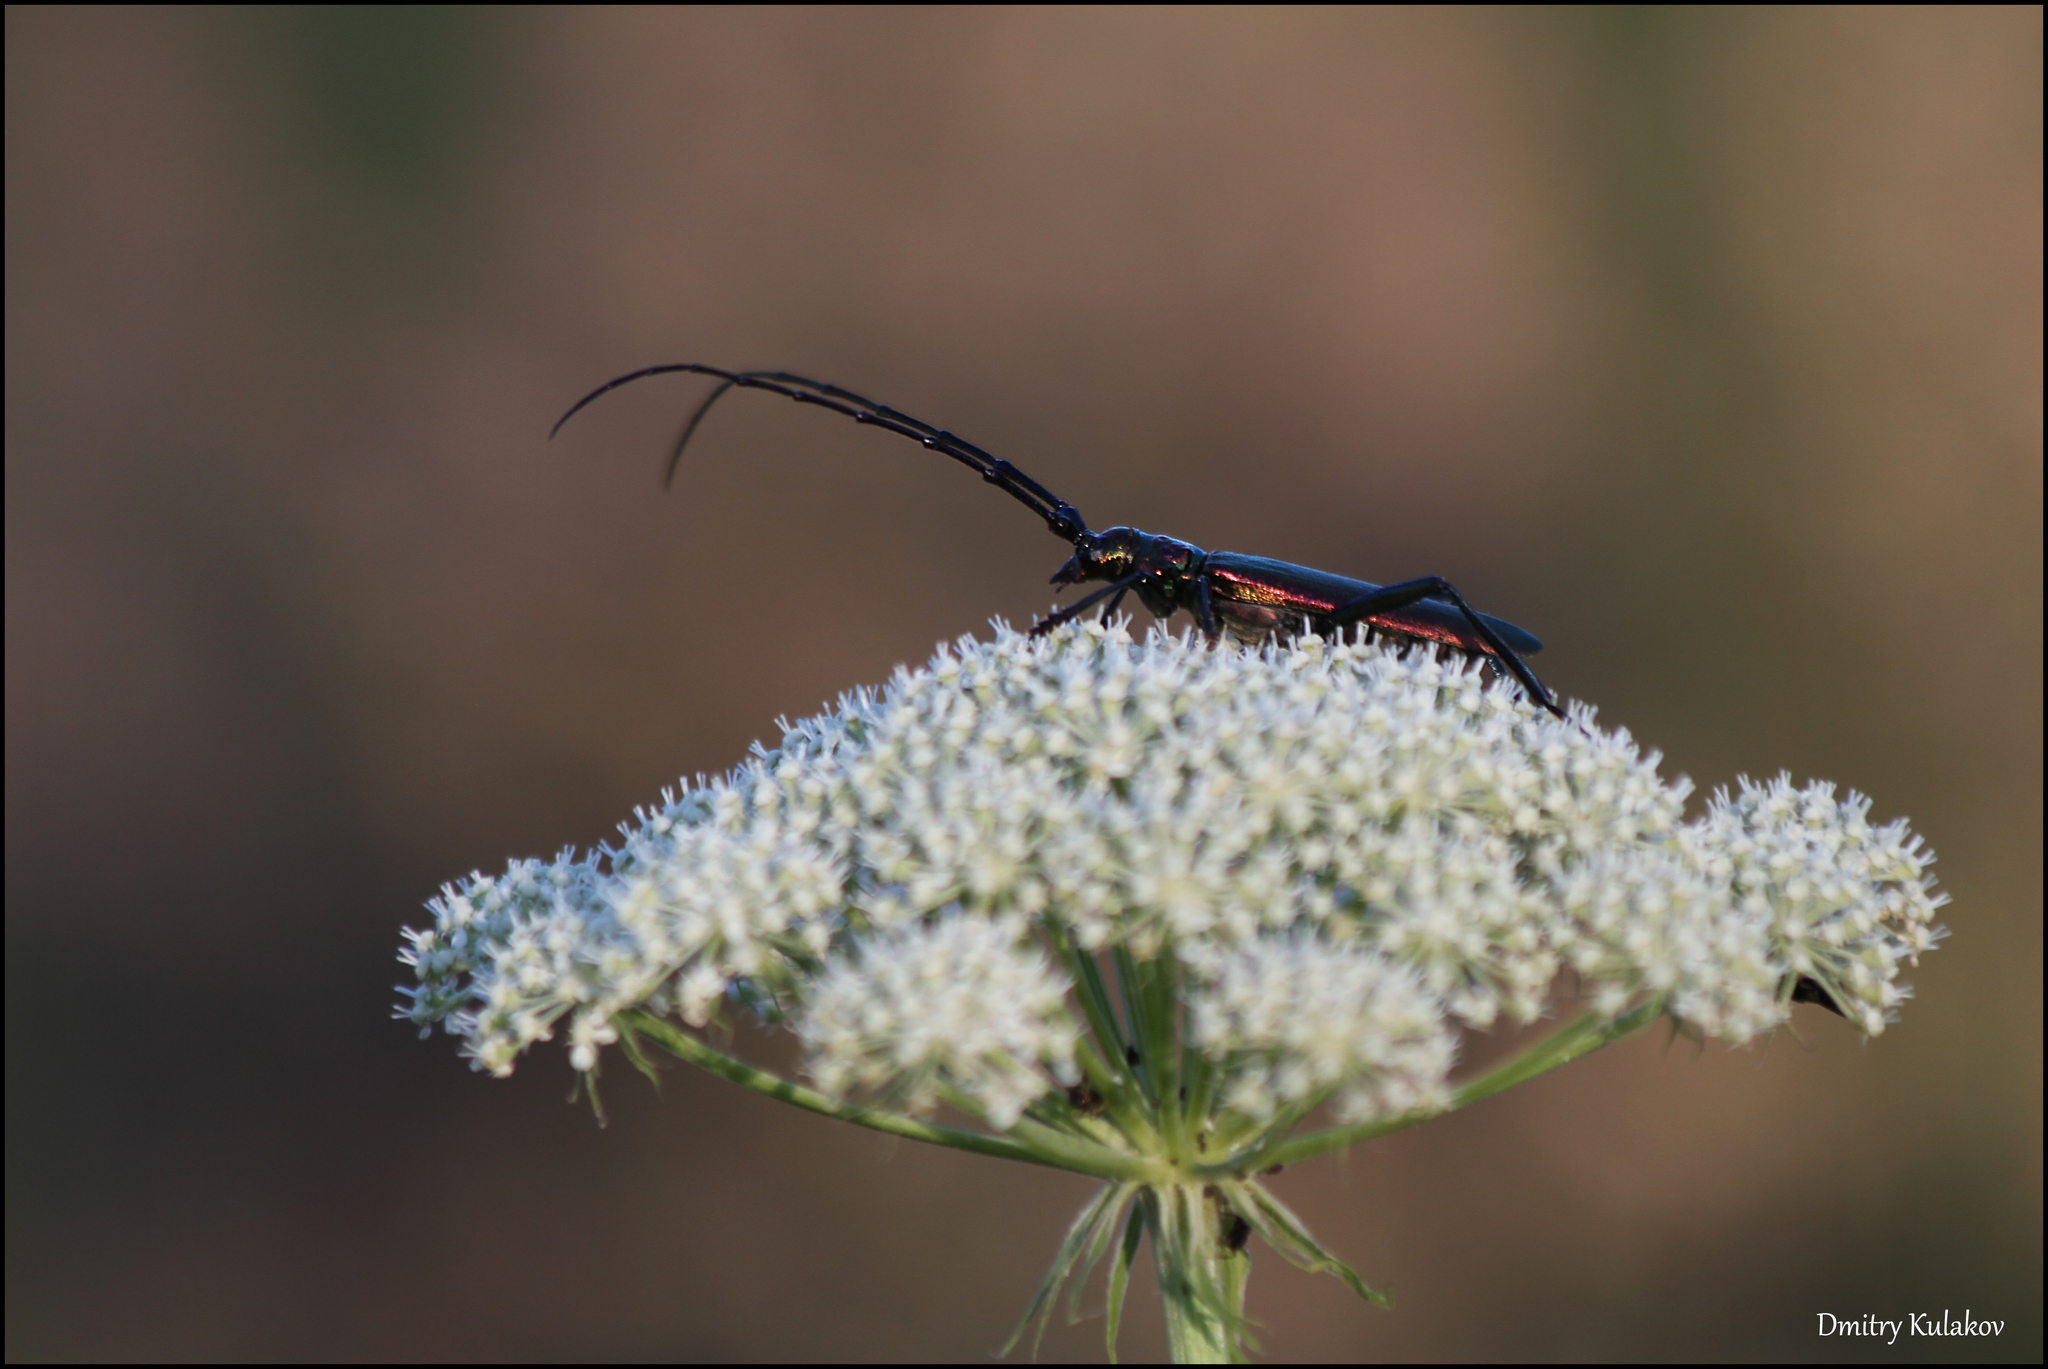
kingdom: Animalia
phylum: Arthropoda
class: Insecta
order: Coleoptera
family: Cerambycidae
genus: Aromia
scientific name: Aromia moschata
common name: Musk beetle
